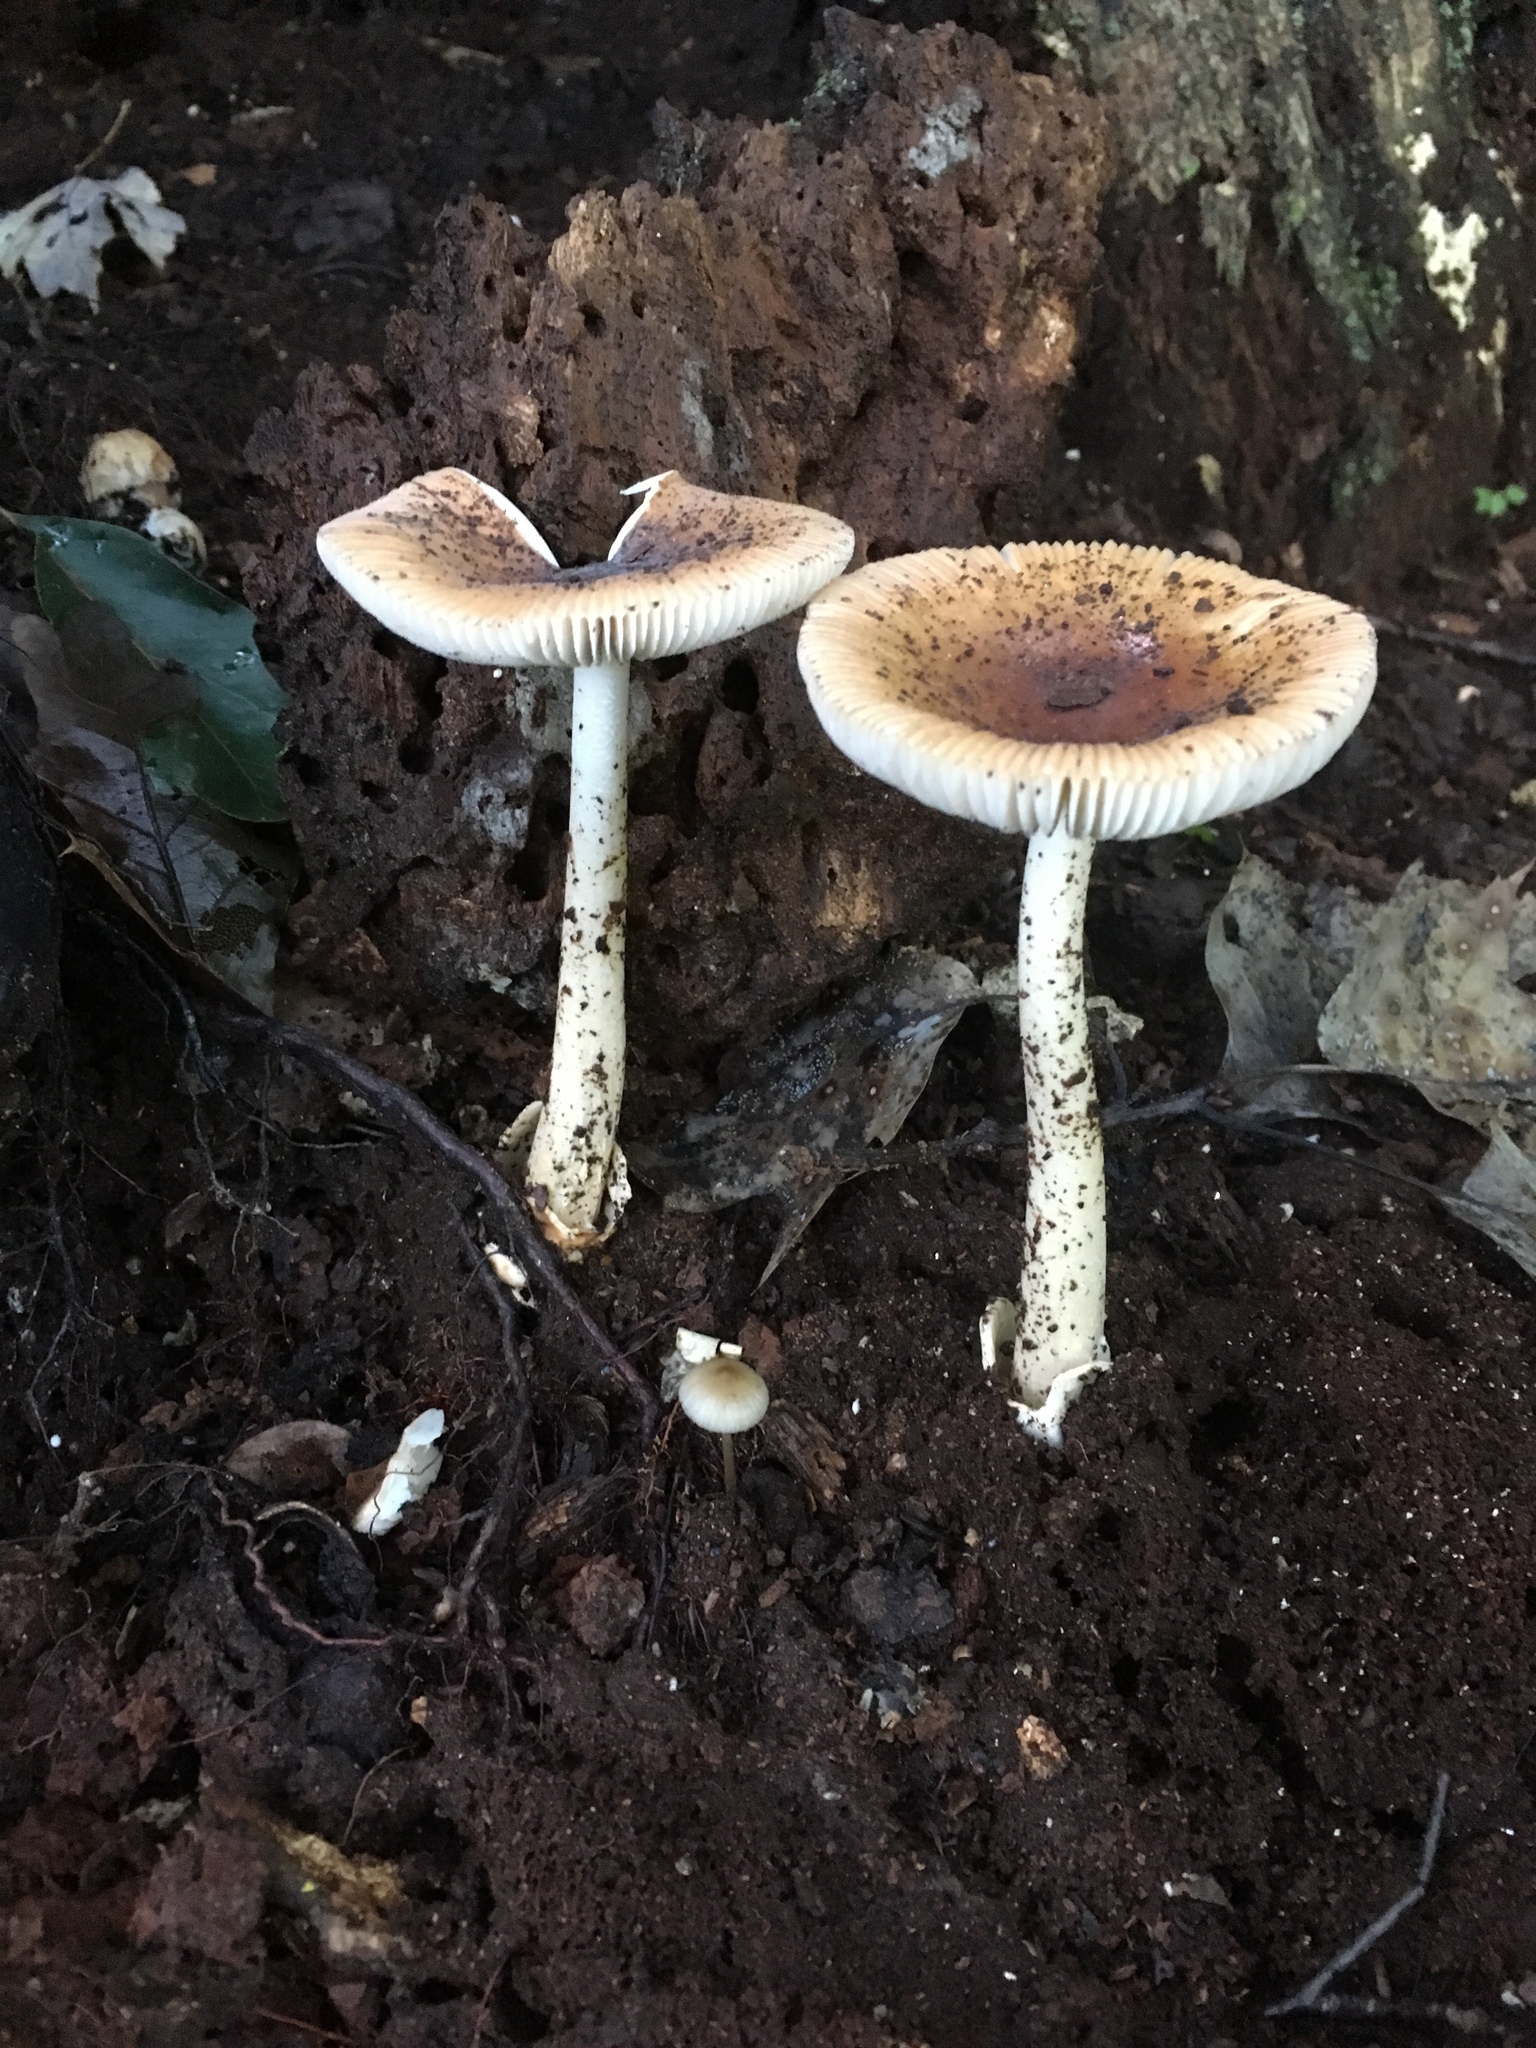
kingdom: Fungi
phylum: Basidiomycota
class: Agaricomycetes
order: Agaricales
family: Amanitaceae
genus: Amanita
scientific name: Amanita fulva
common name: Tawny grisette
